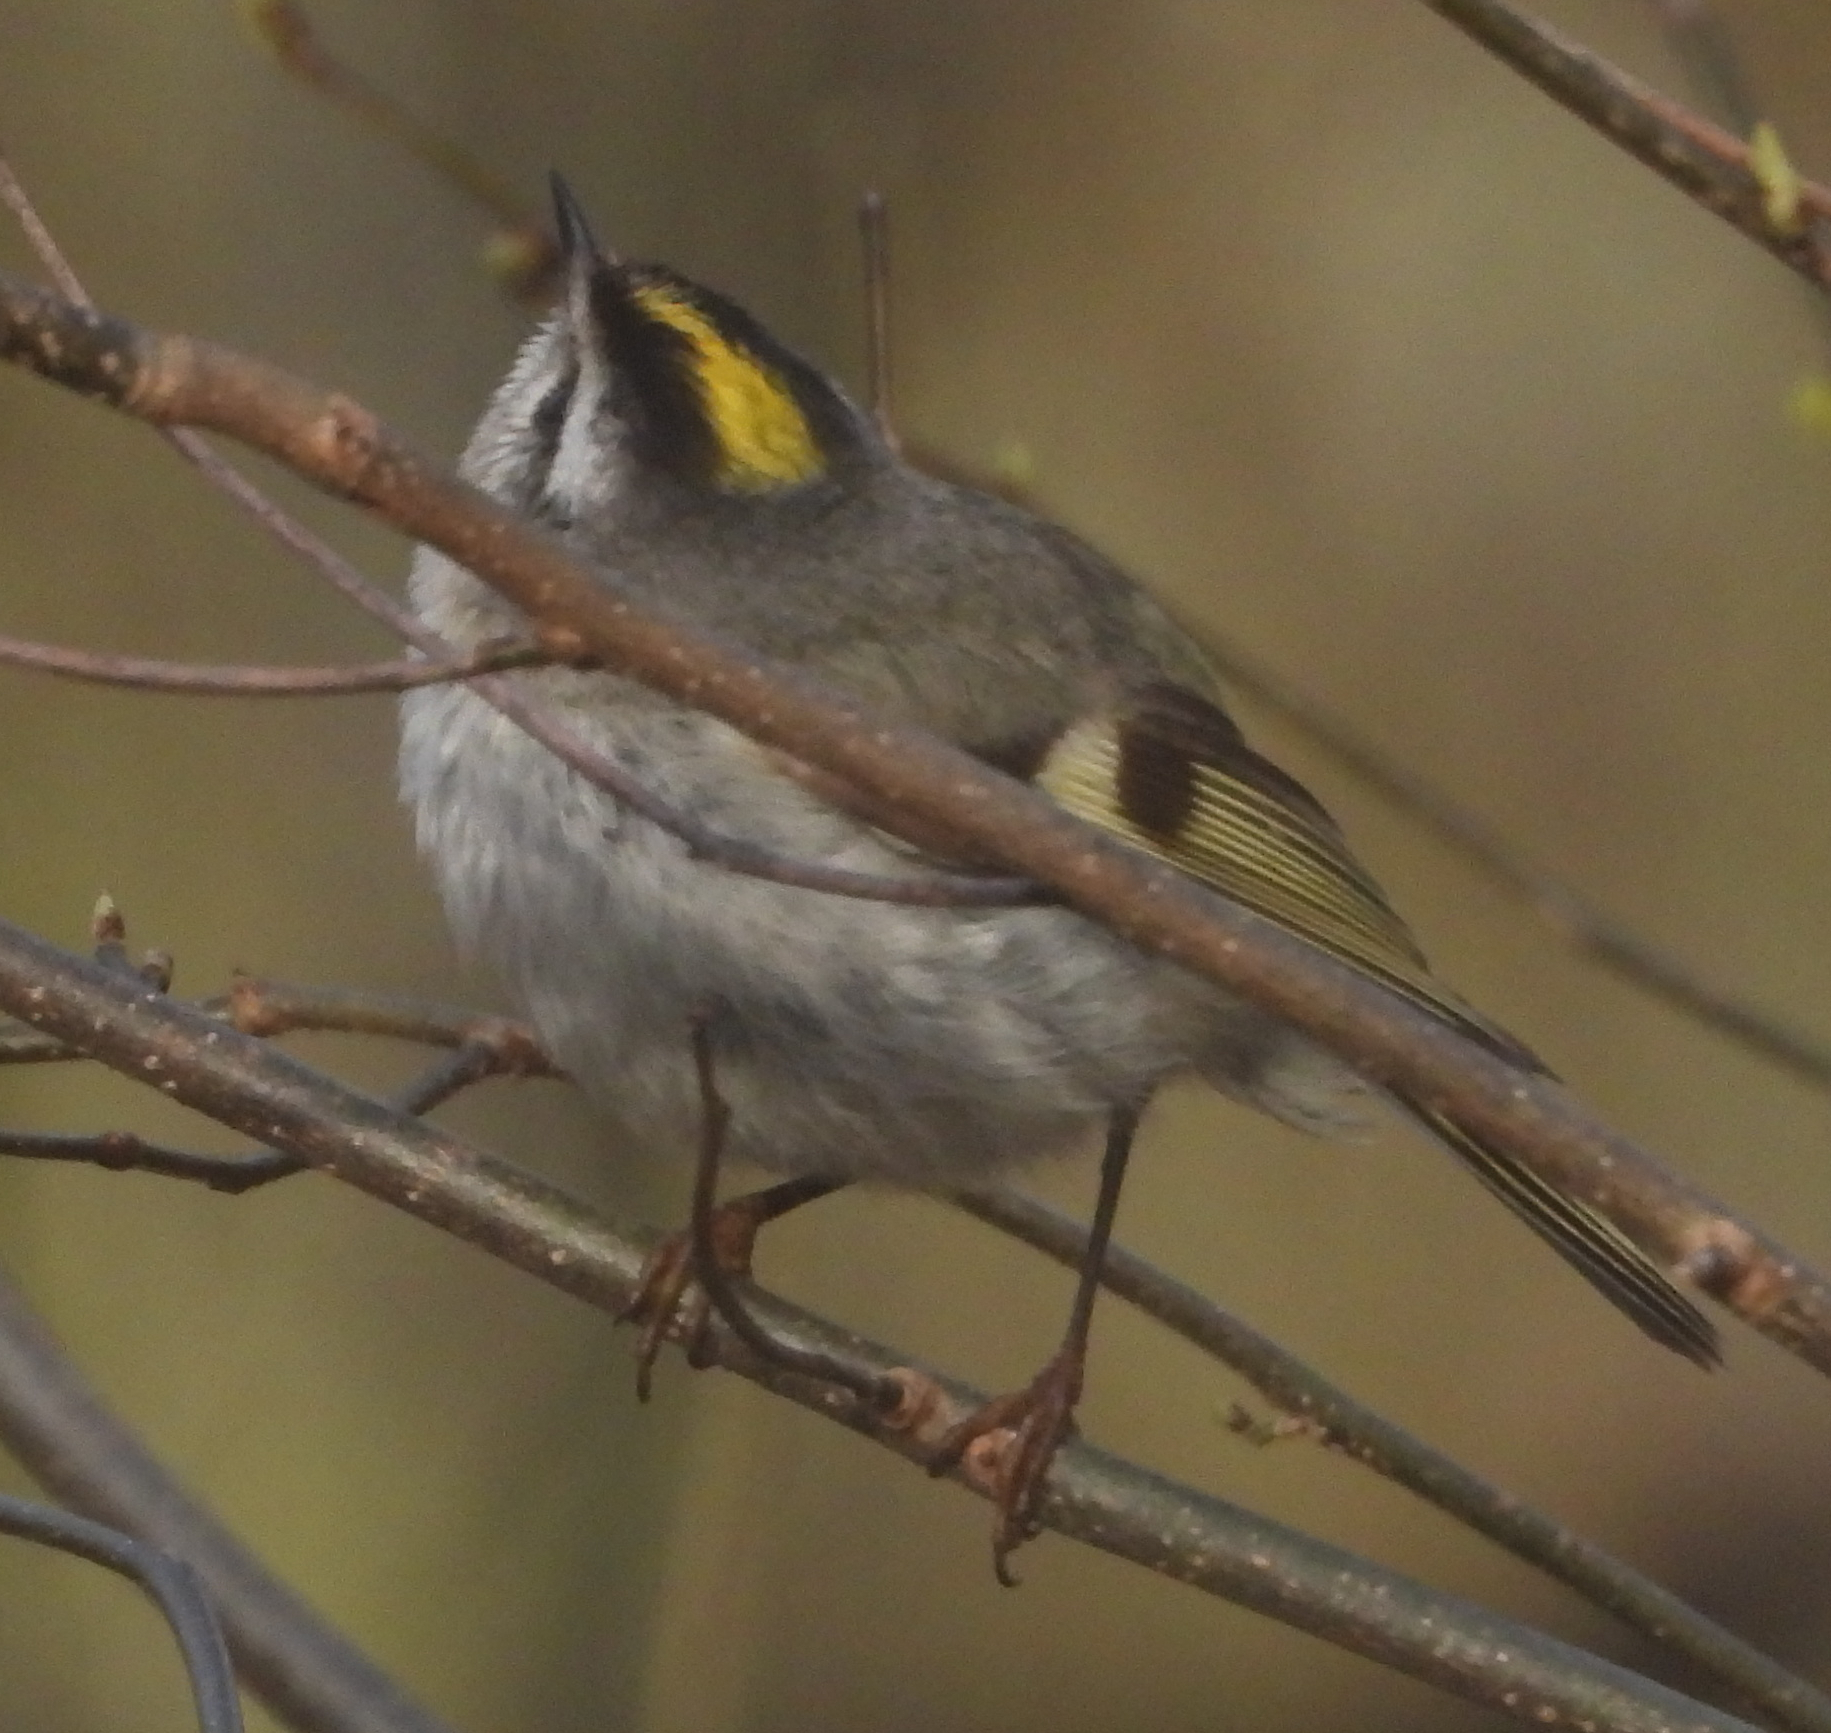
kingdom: Animalia
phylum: Chordata
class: Aves
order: Passeriformes
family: Regulidae
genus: Regulus
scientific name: Regulus satrapa
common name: Golden-crowned kinglet
